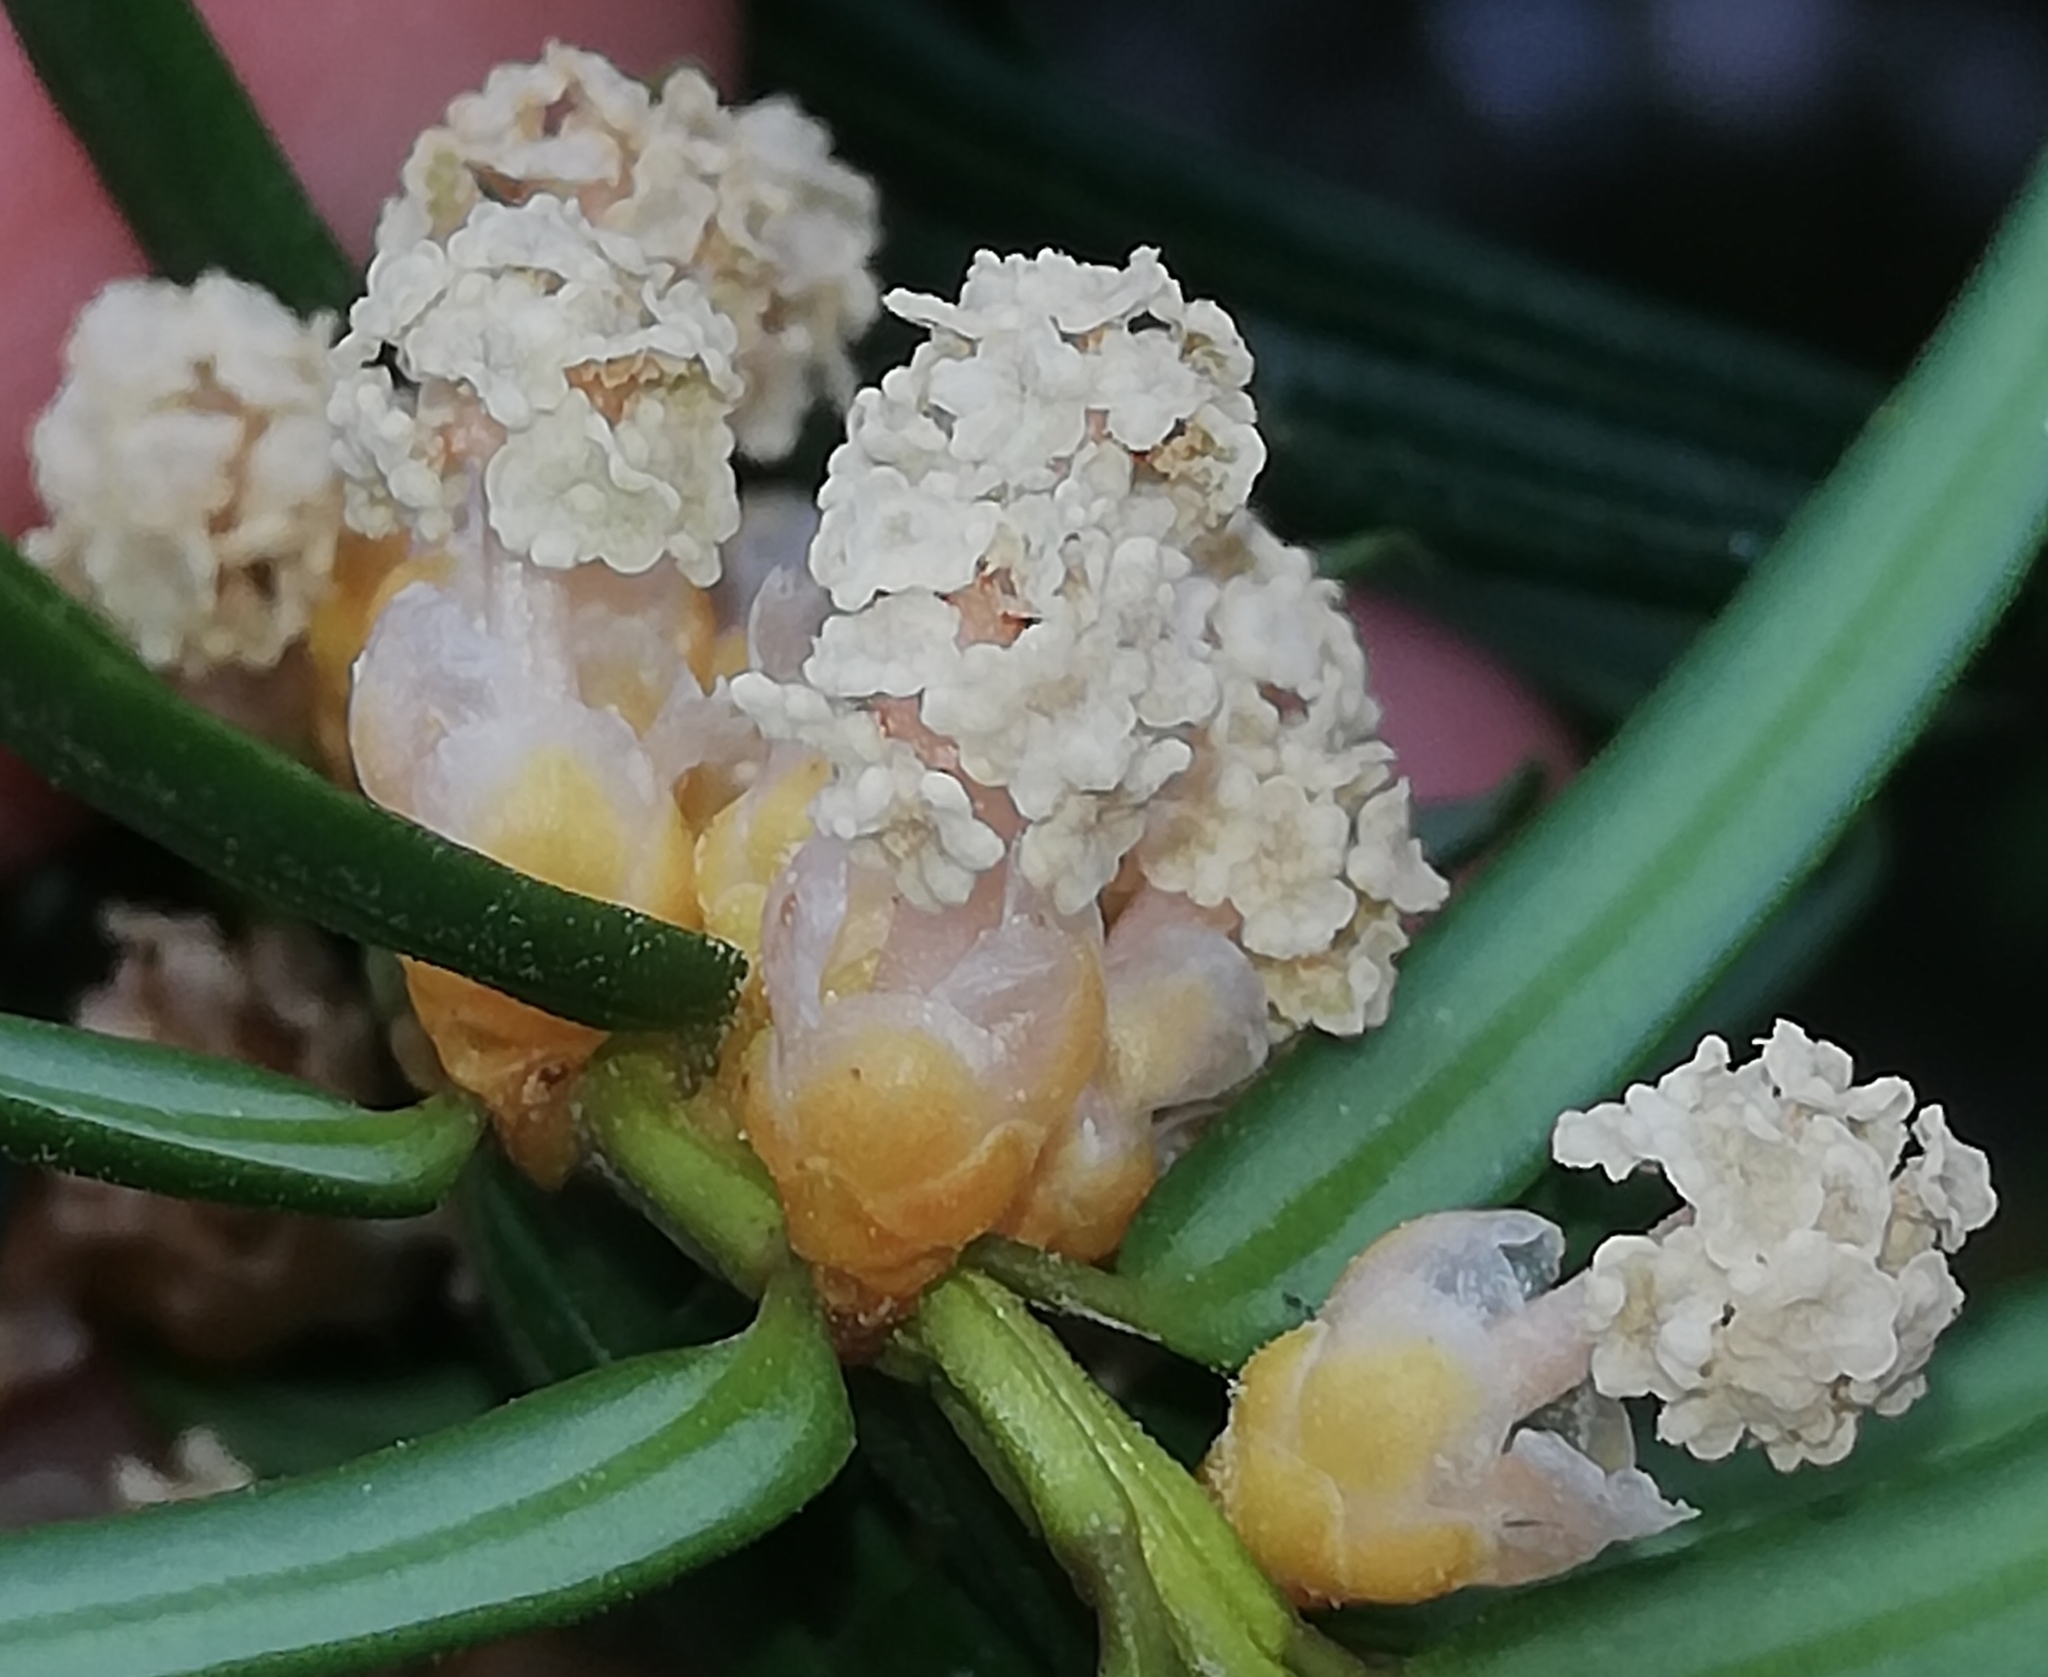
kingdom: Plantae
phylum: Tracheophyta
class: Pinopsida
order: Pinales
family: Taxaceae
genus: Taxus
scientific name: Taxus baccata
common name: Yew
